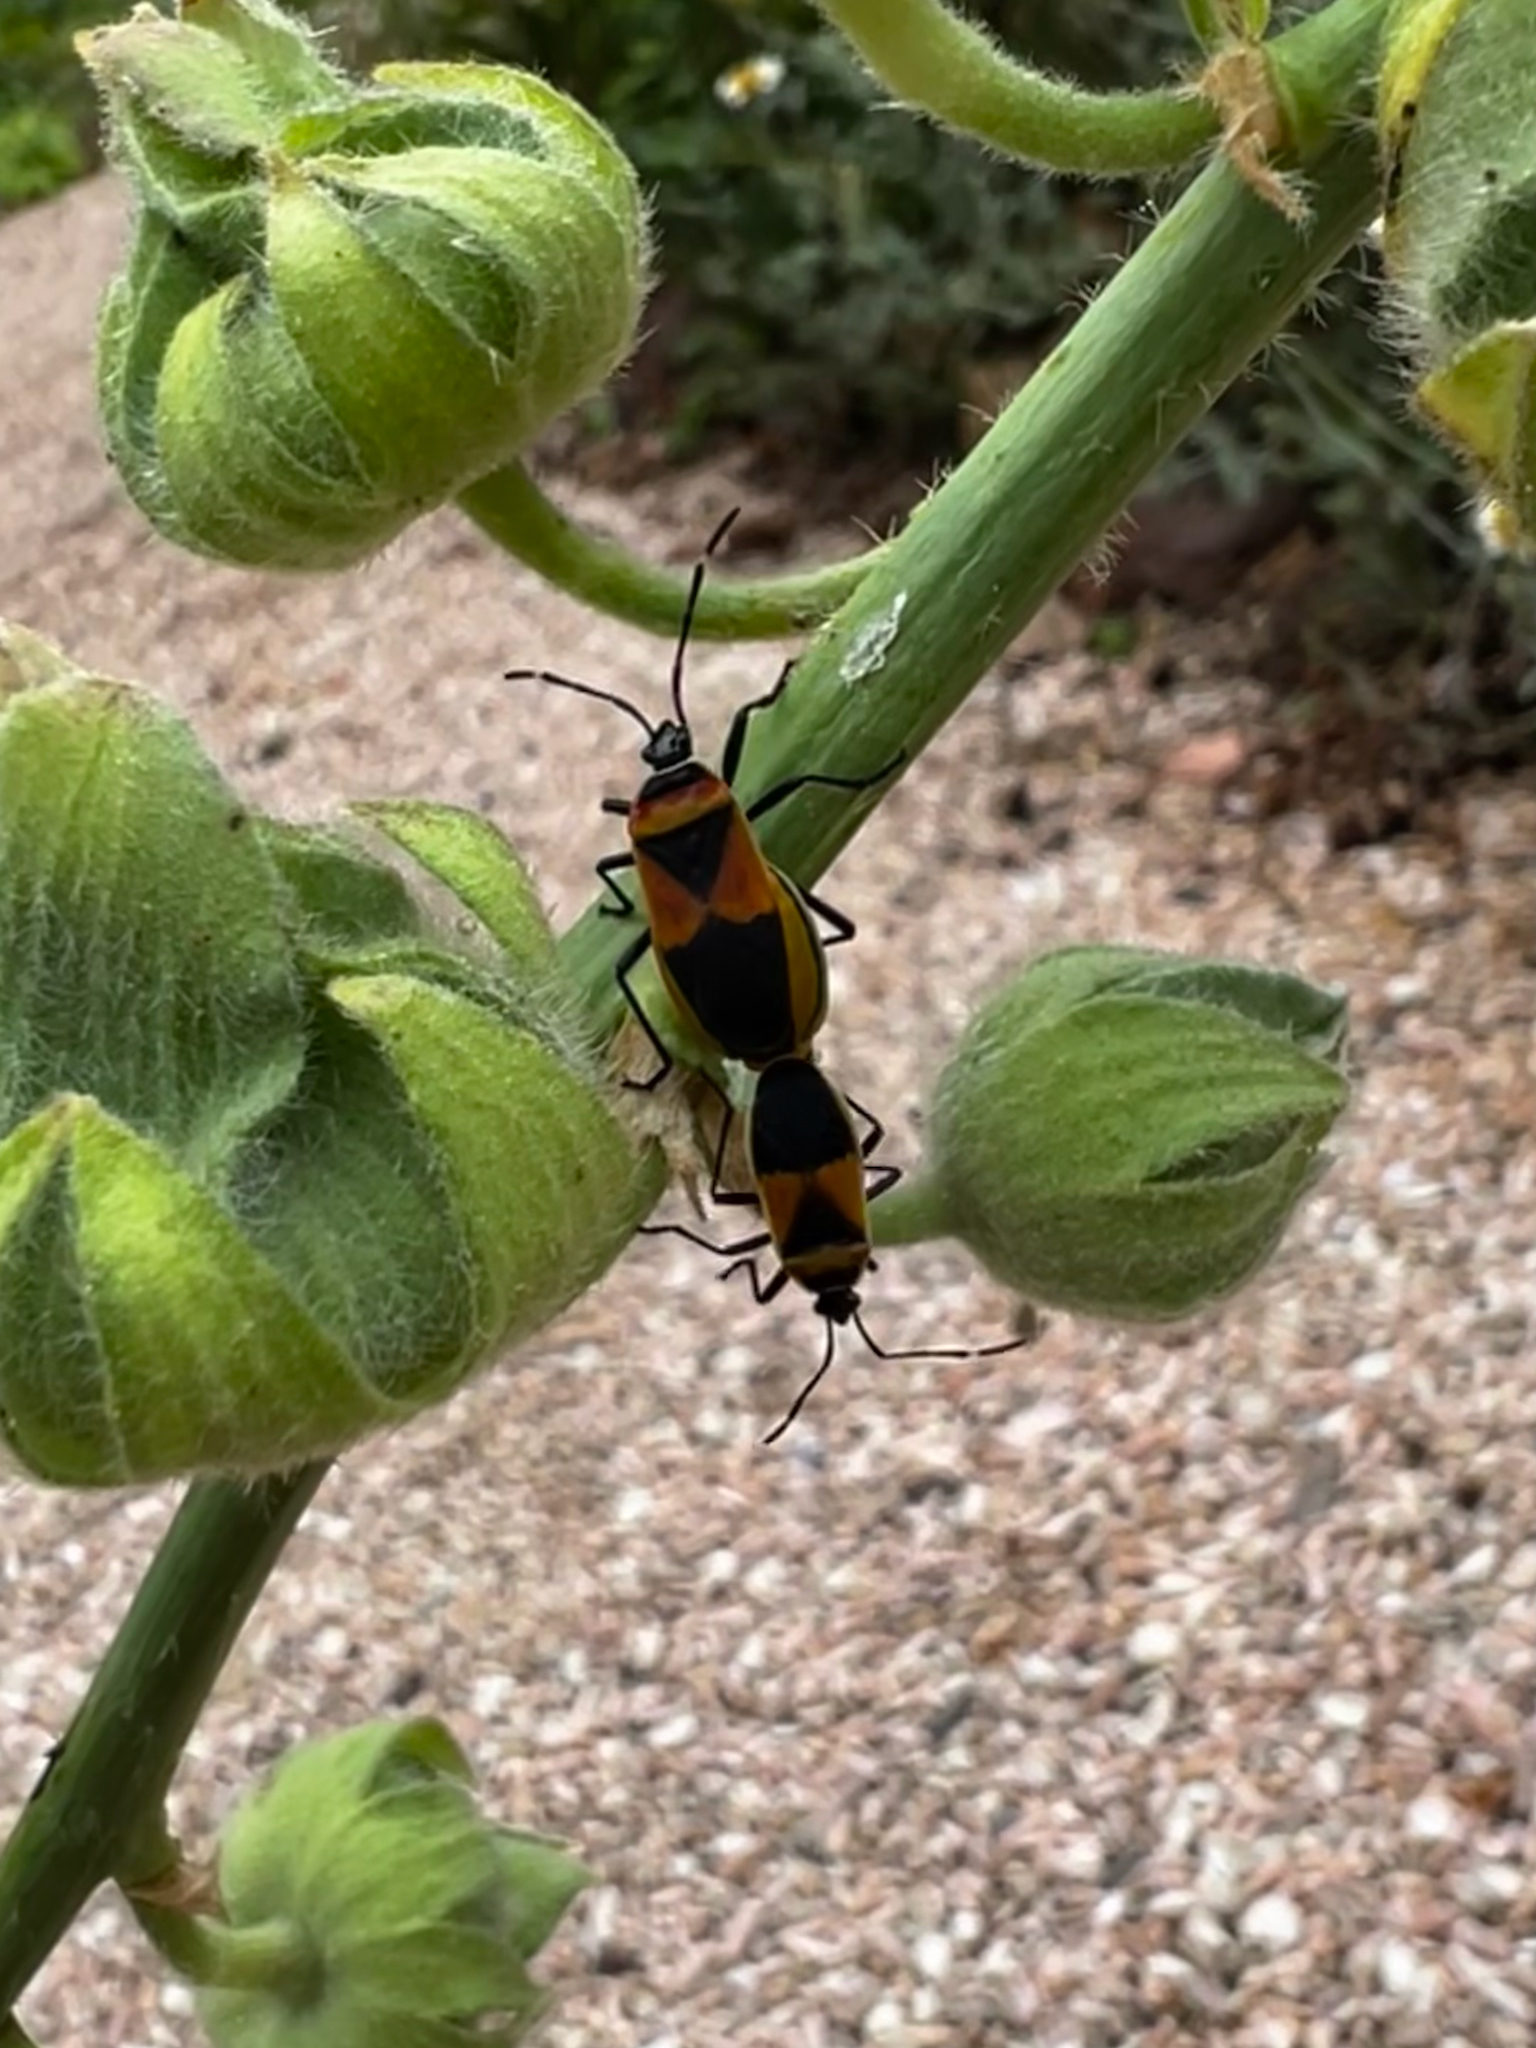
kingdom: Animalia
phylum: Arthropoda
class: Insecta
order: Hemiptera
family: Pyrrhocoridae
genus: Dindymus
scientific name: Dindymus
